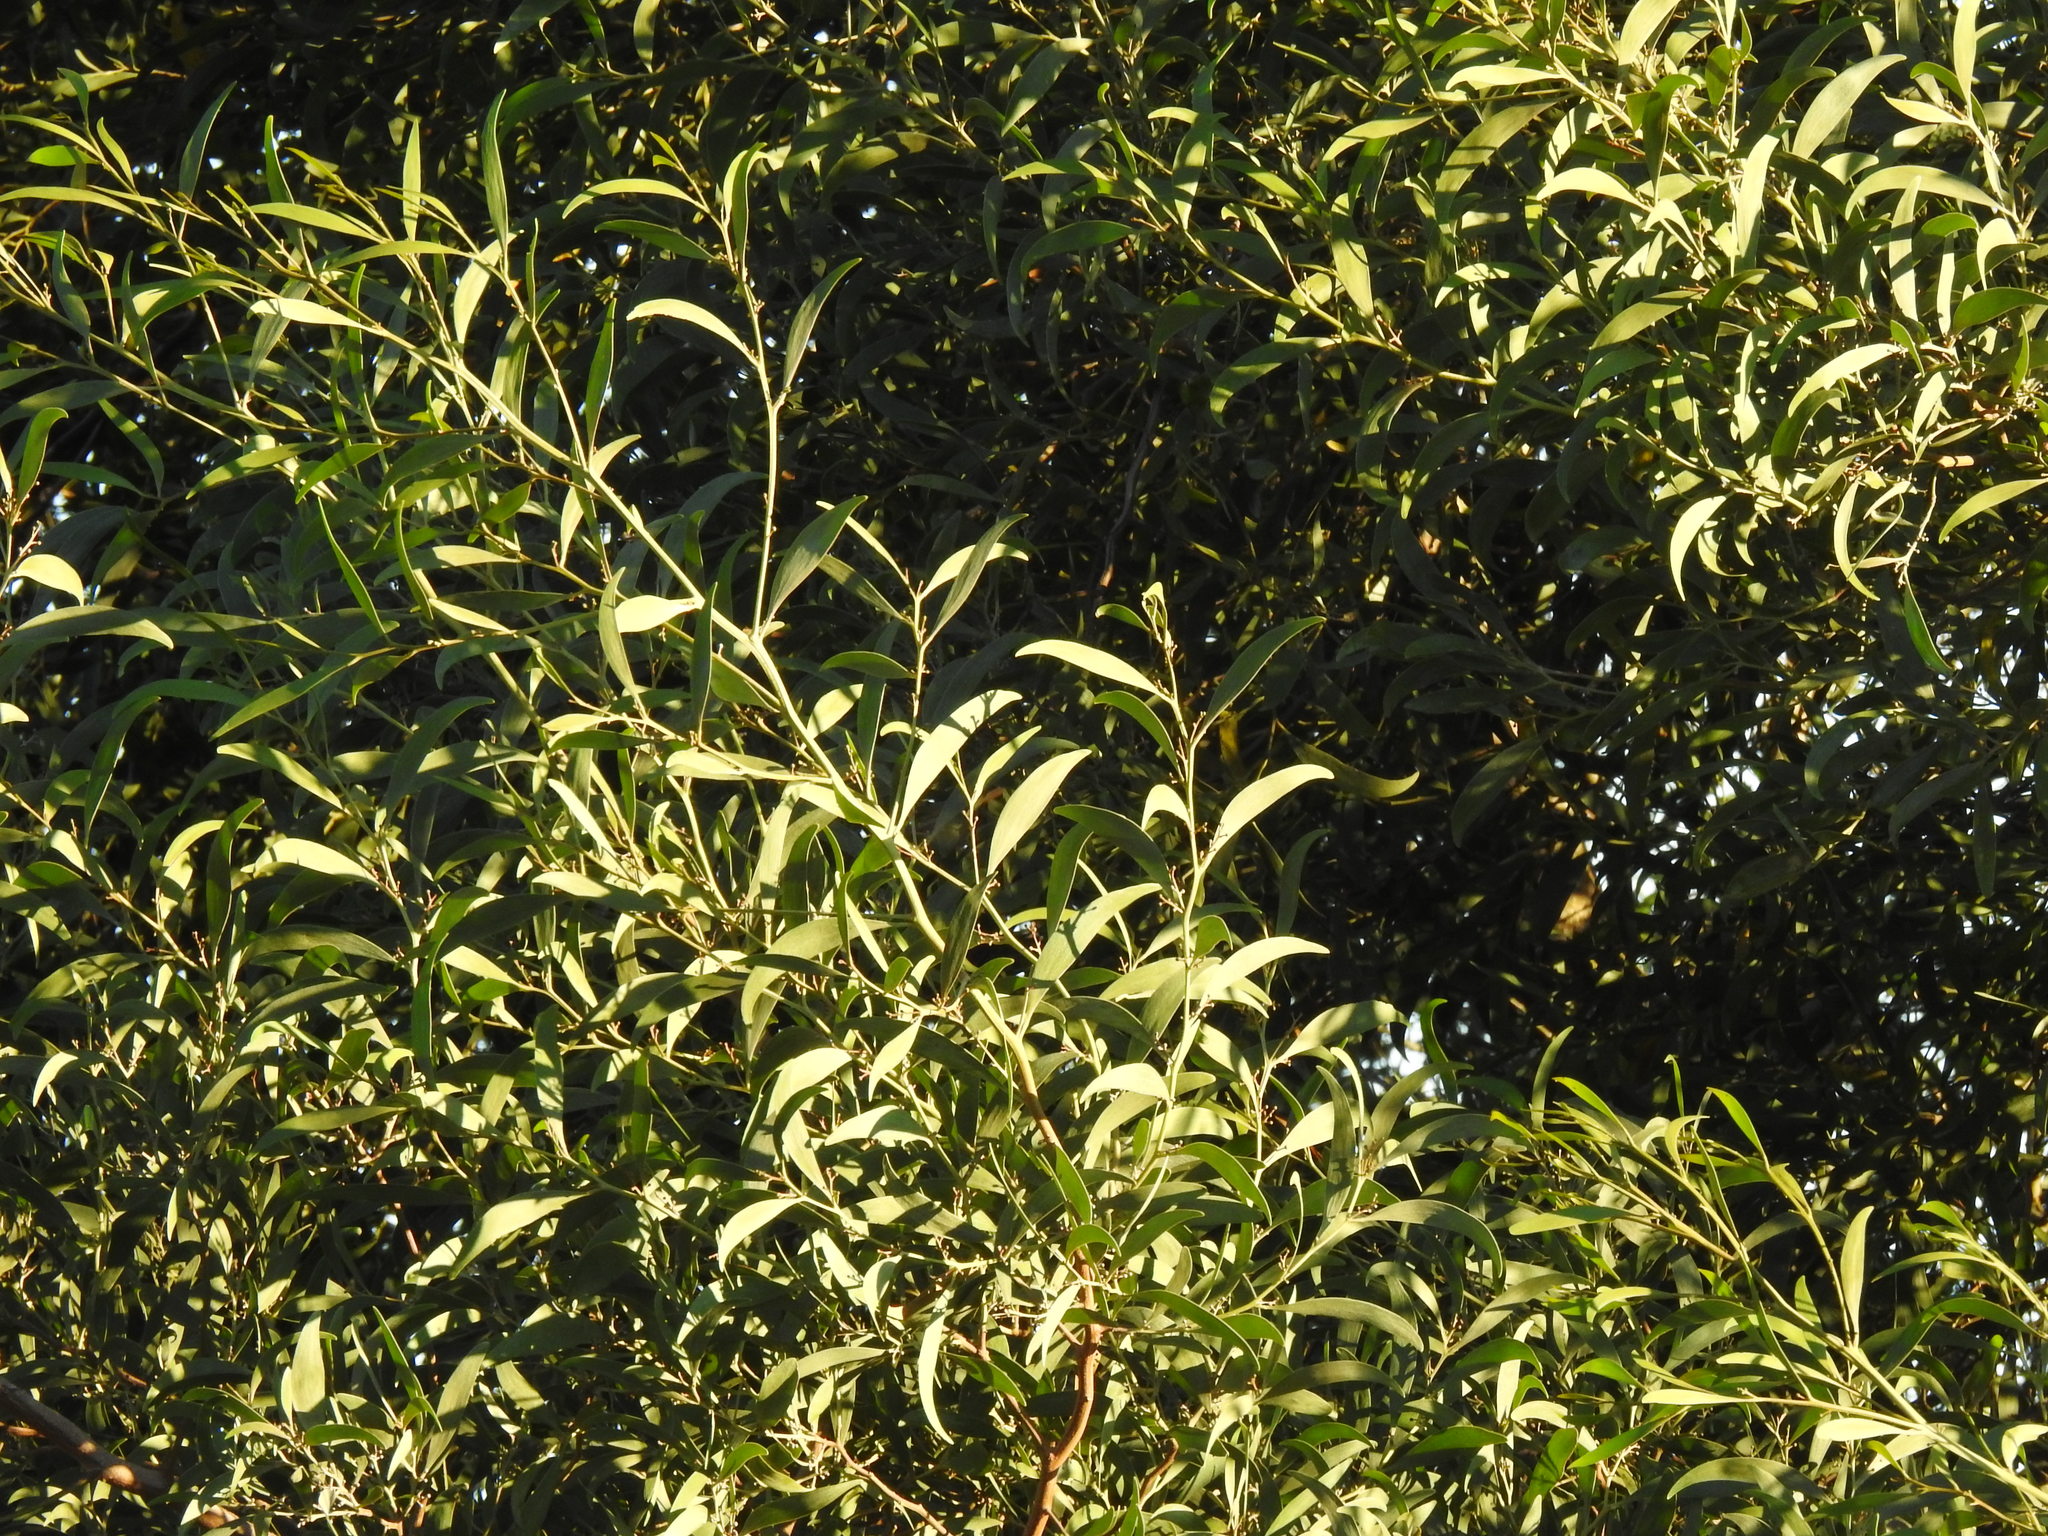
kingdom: Plantae
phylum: Tracheophyta
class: Magnoliopsida
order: Fabales
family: Fabaceae
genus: Acacia
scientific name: Acacia melanoxylon
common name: Blackwood
